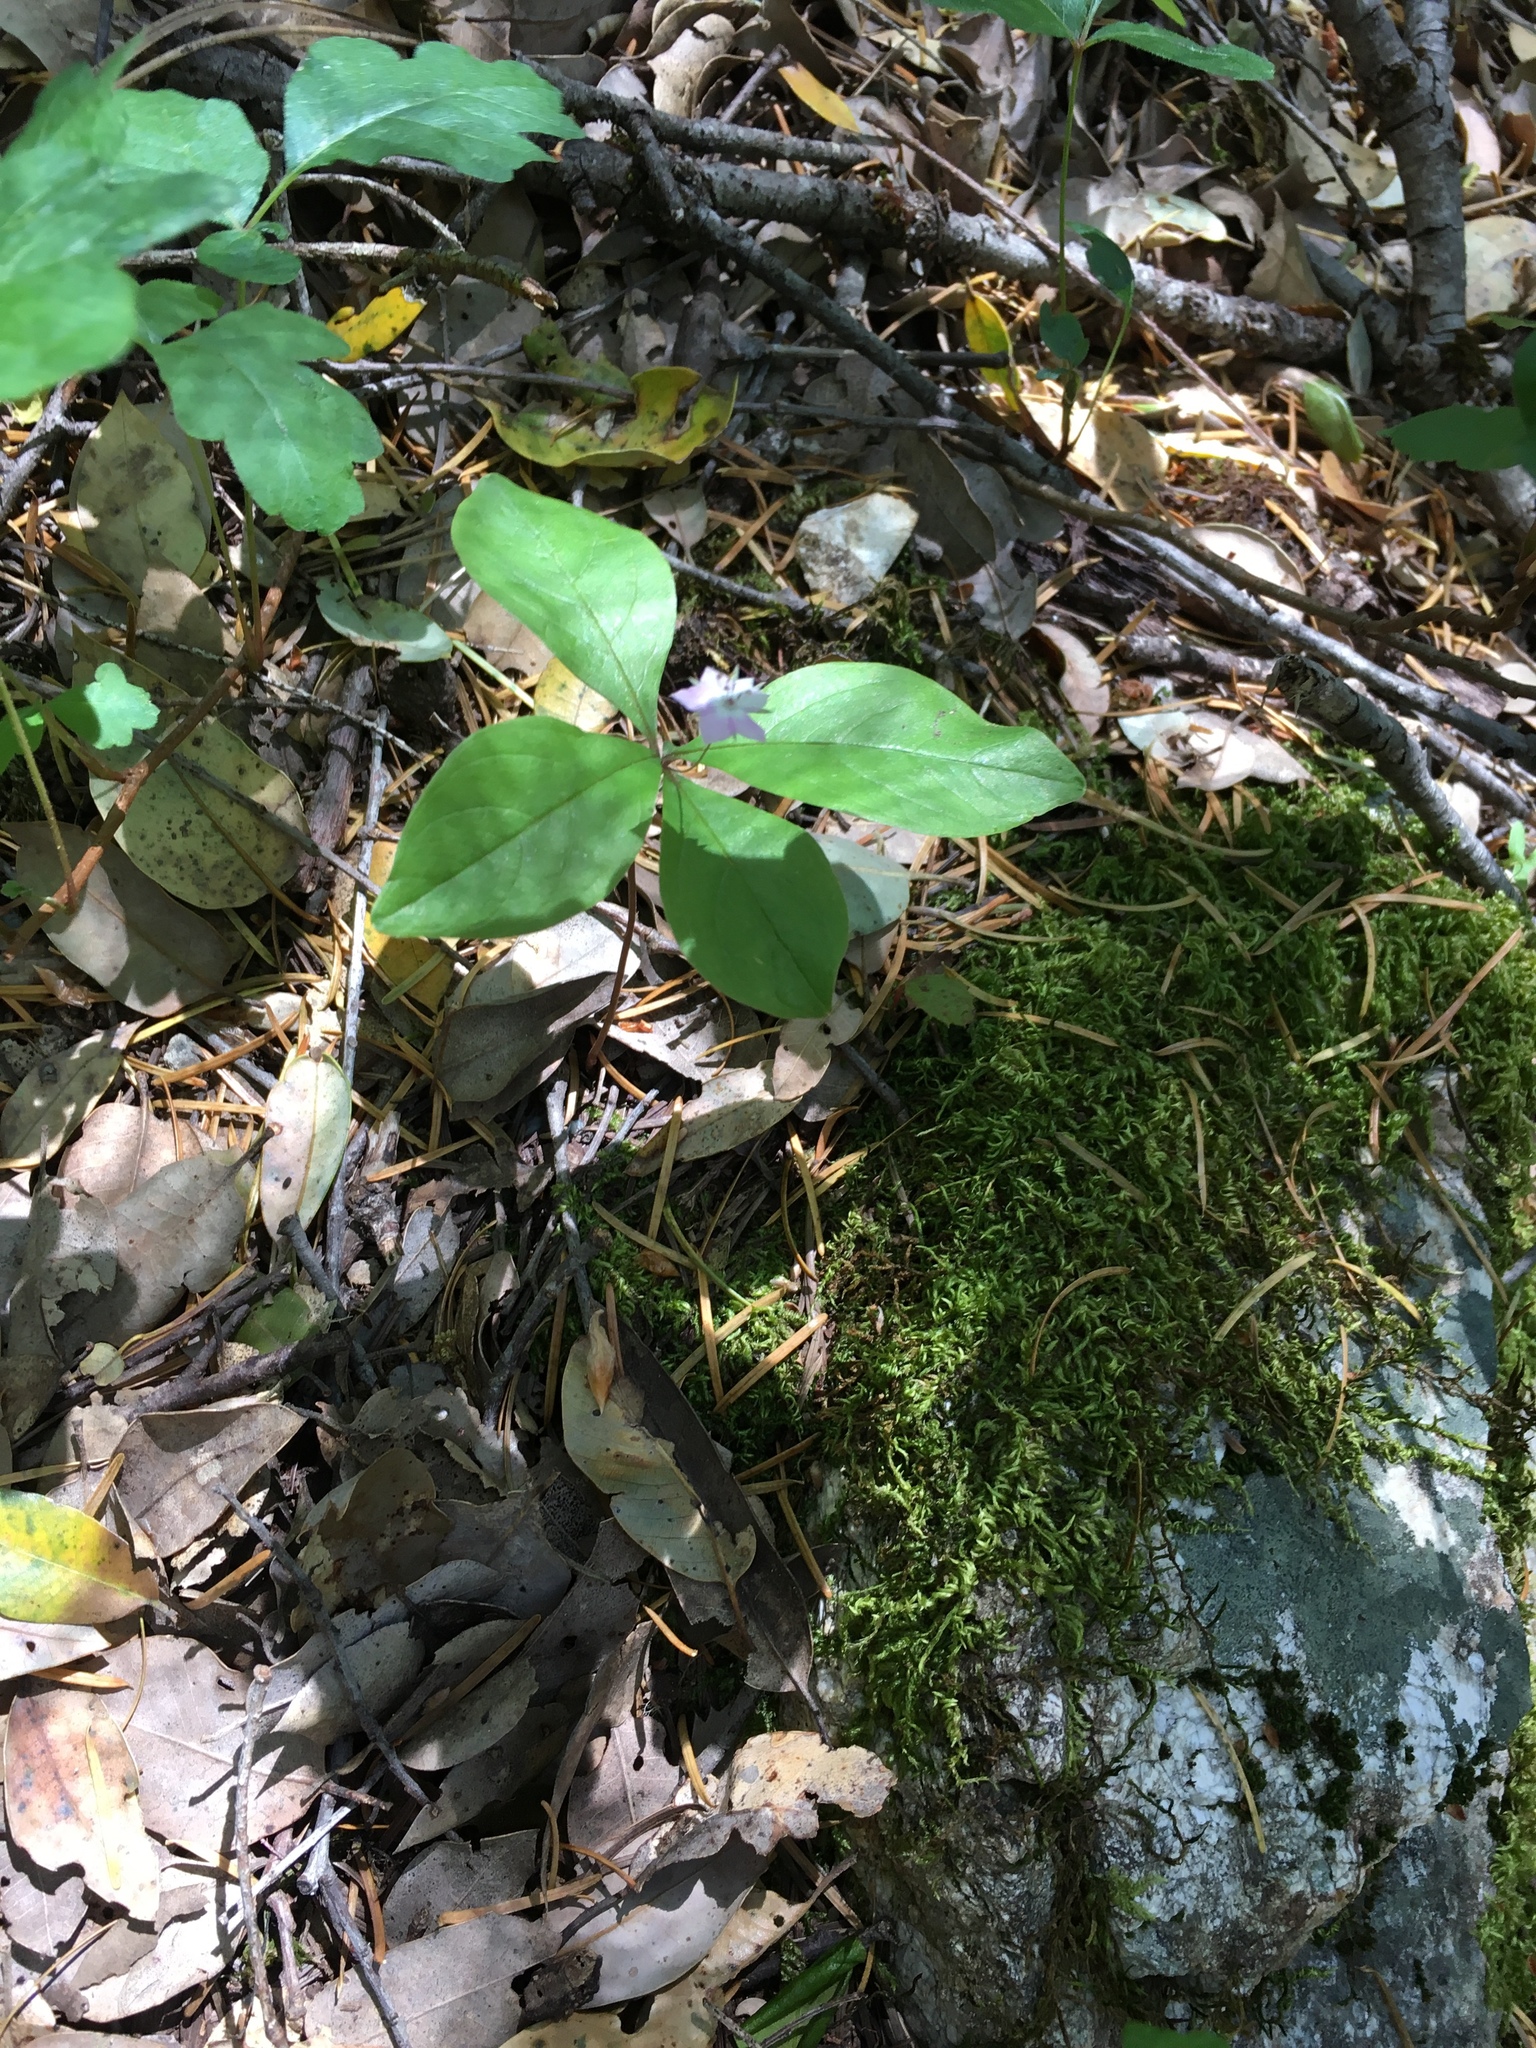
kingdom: Plantae
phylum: Tracheophyta
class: Magnoliopsida
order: Ericales
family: Primulaceae
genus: Lysimachia
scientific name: Lysimachia latifolia
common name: Pacific starflower
